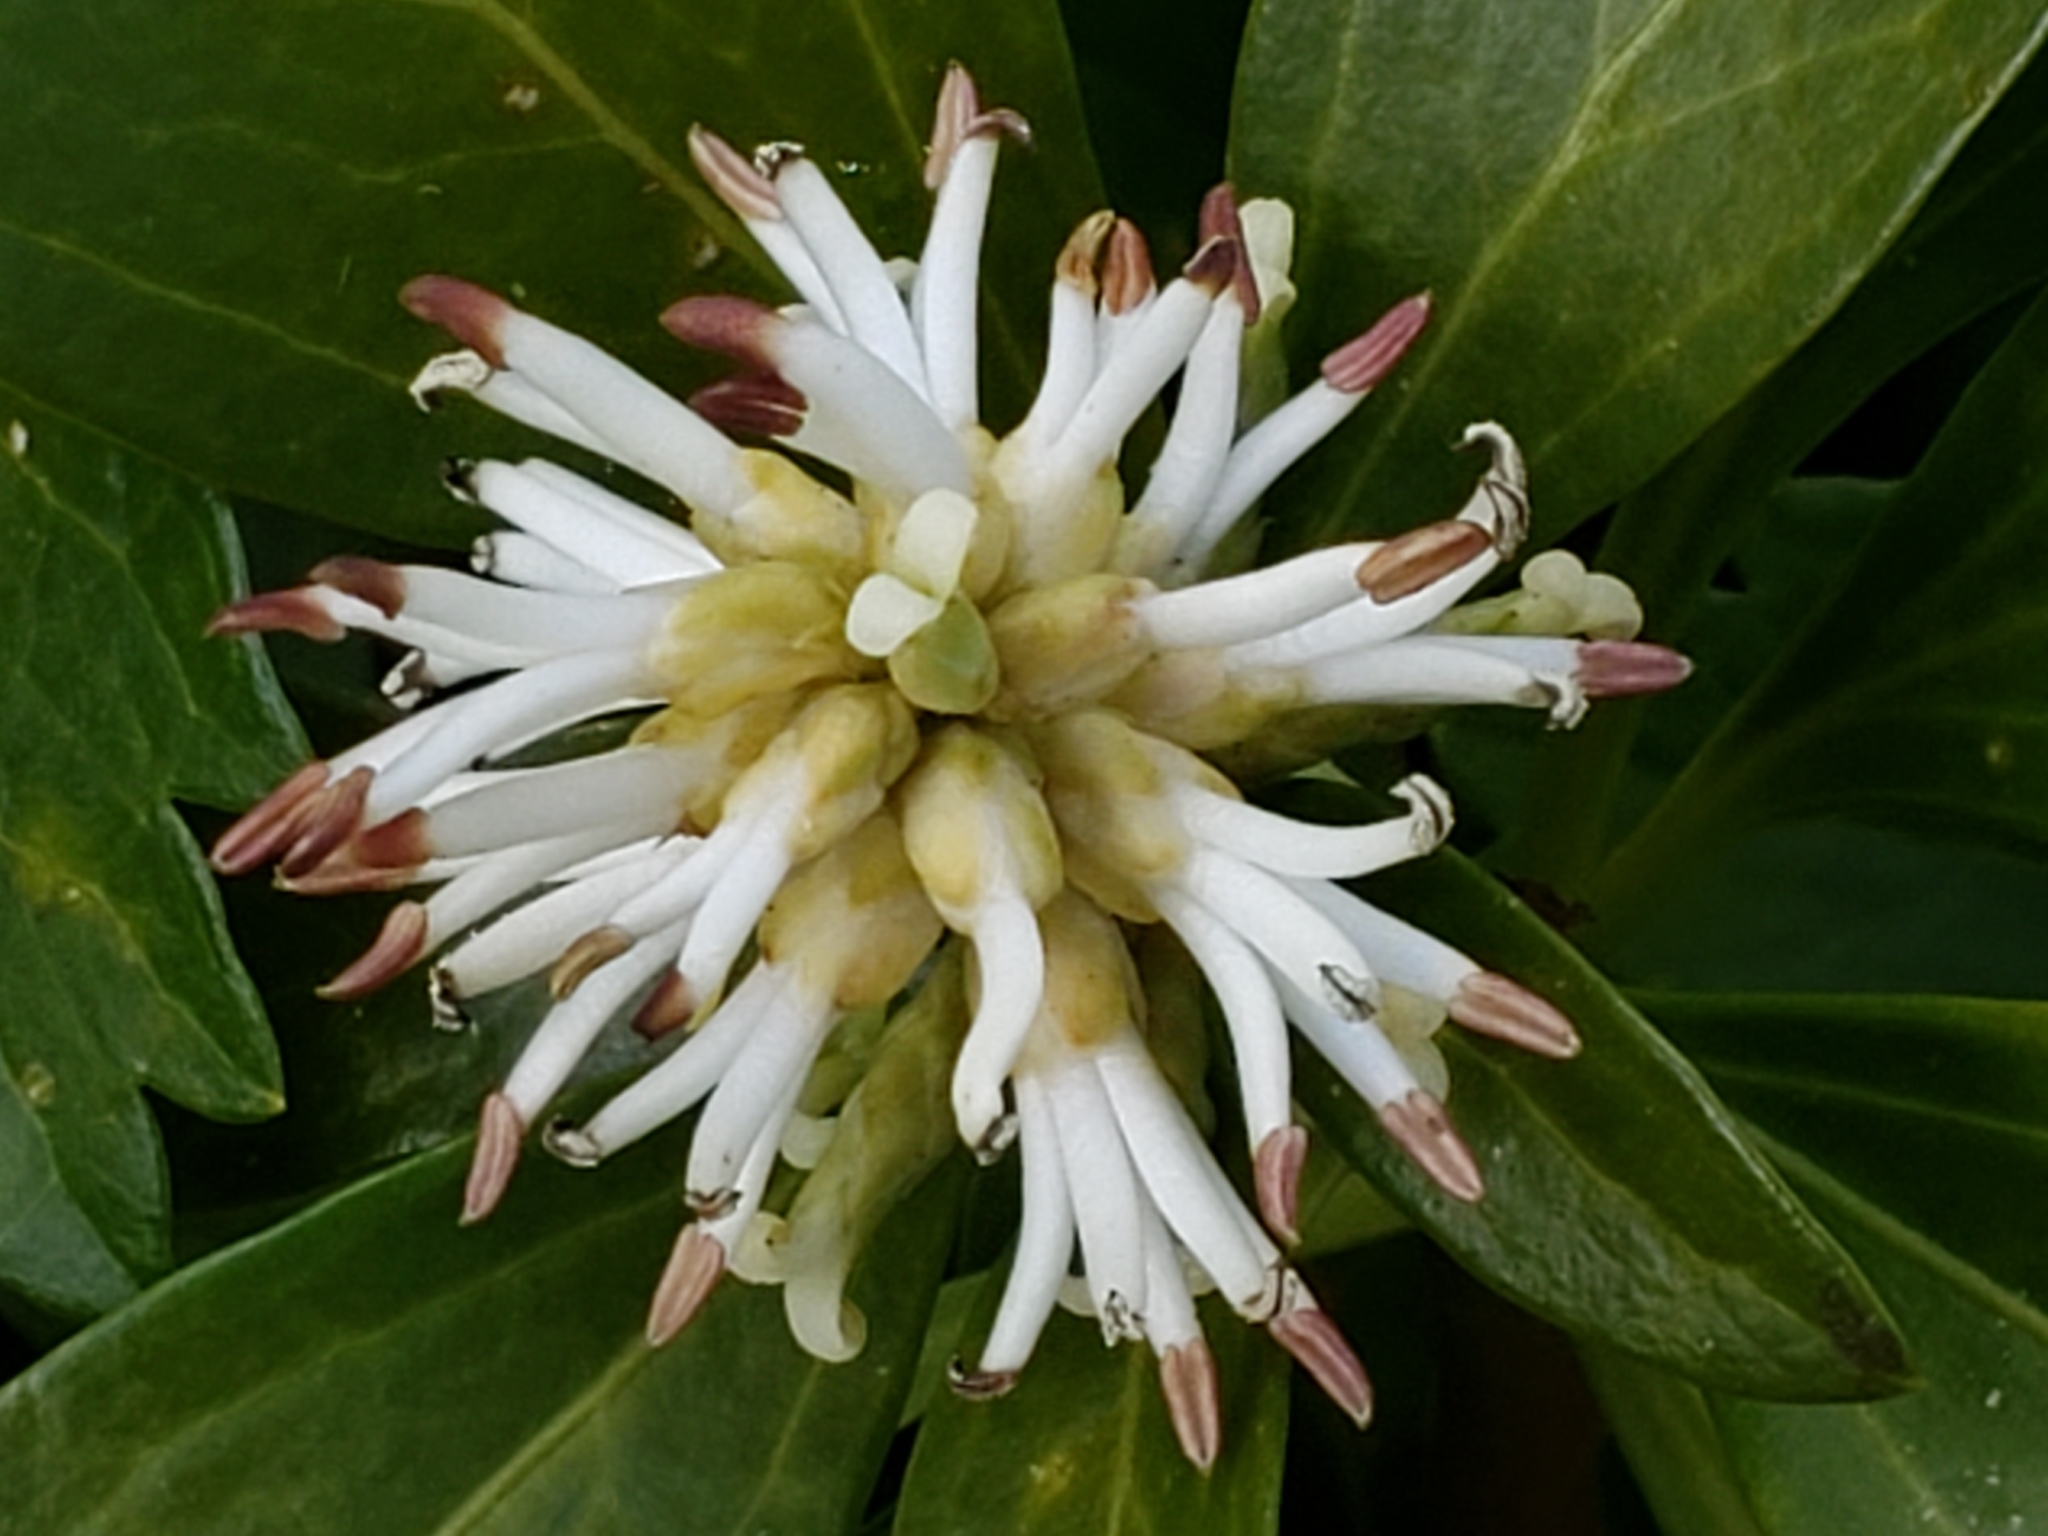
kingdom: Plantae
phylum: Tracheophyta
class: Magnoliopsida
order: Buxales
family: Buxaceae
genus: Pachysandra
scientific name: Pachysandra terminalis
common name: Japanese pachysandra
